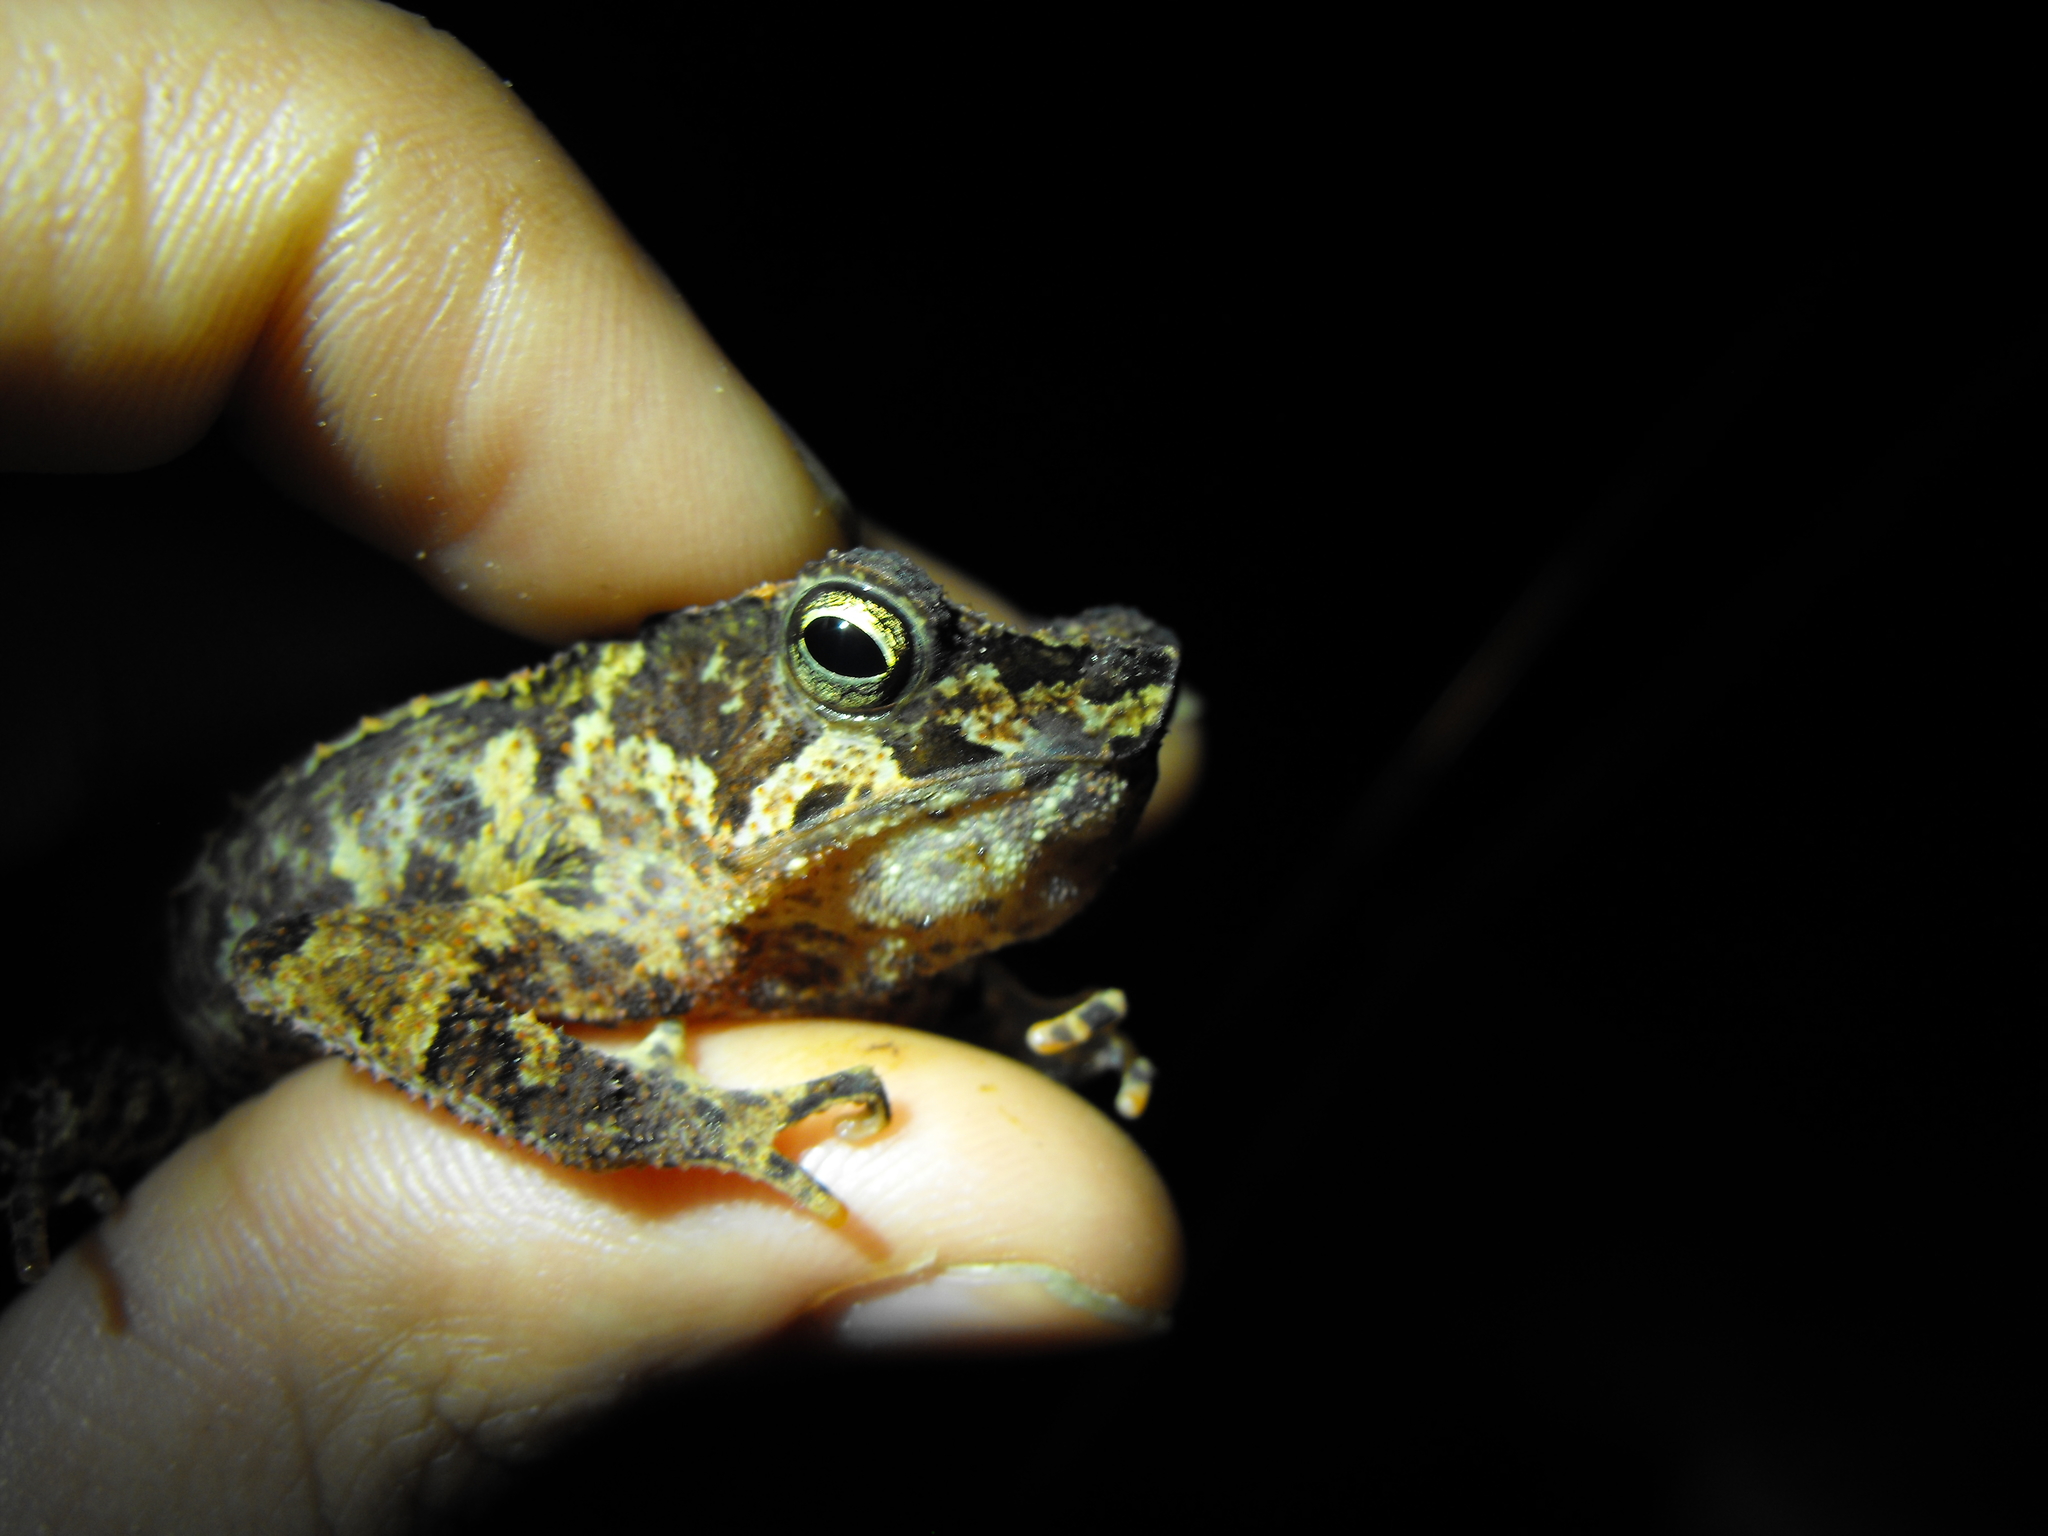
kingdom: Animalia
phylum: Chordata
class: Amphibia
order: Anura
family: Bufonidae
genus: Rhinella
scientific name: Rhinella margaritifera
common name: Mitred toad
